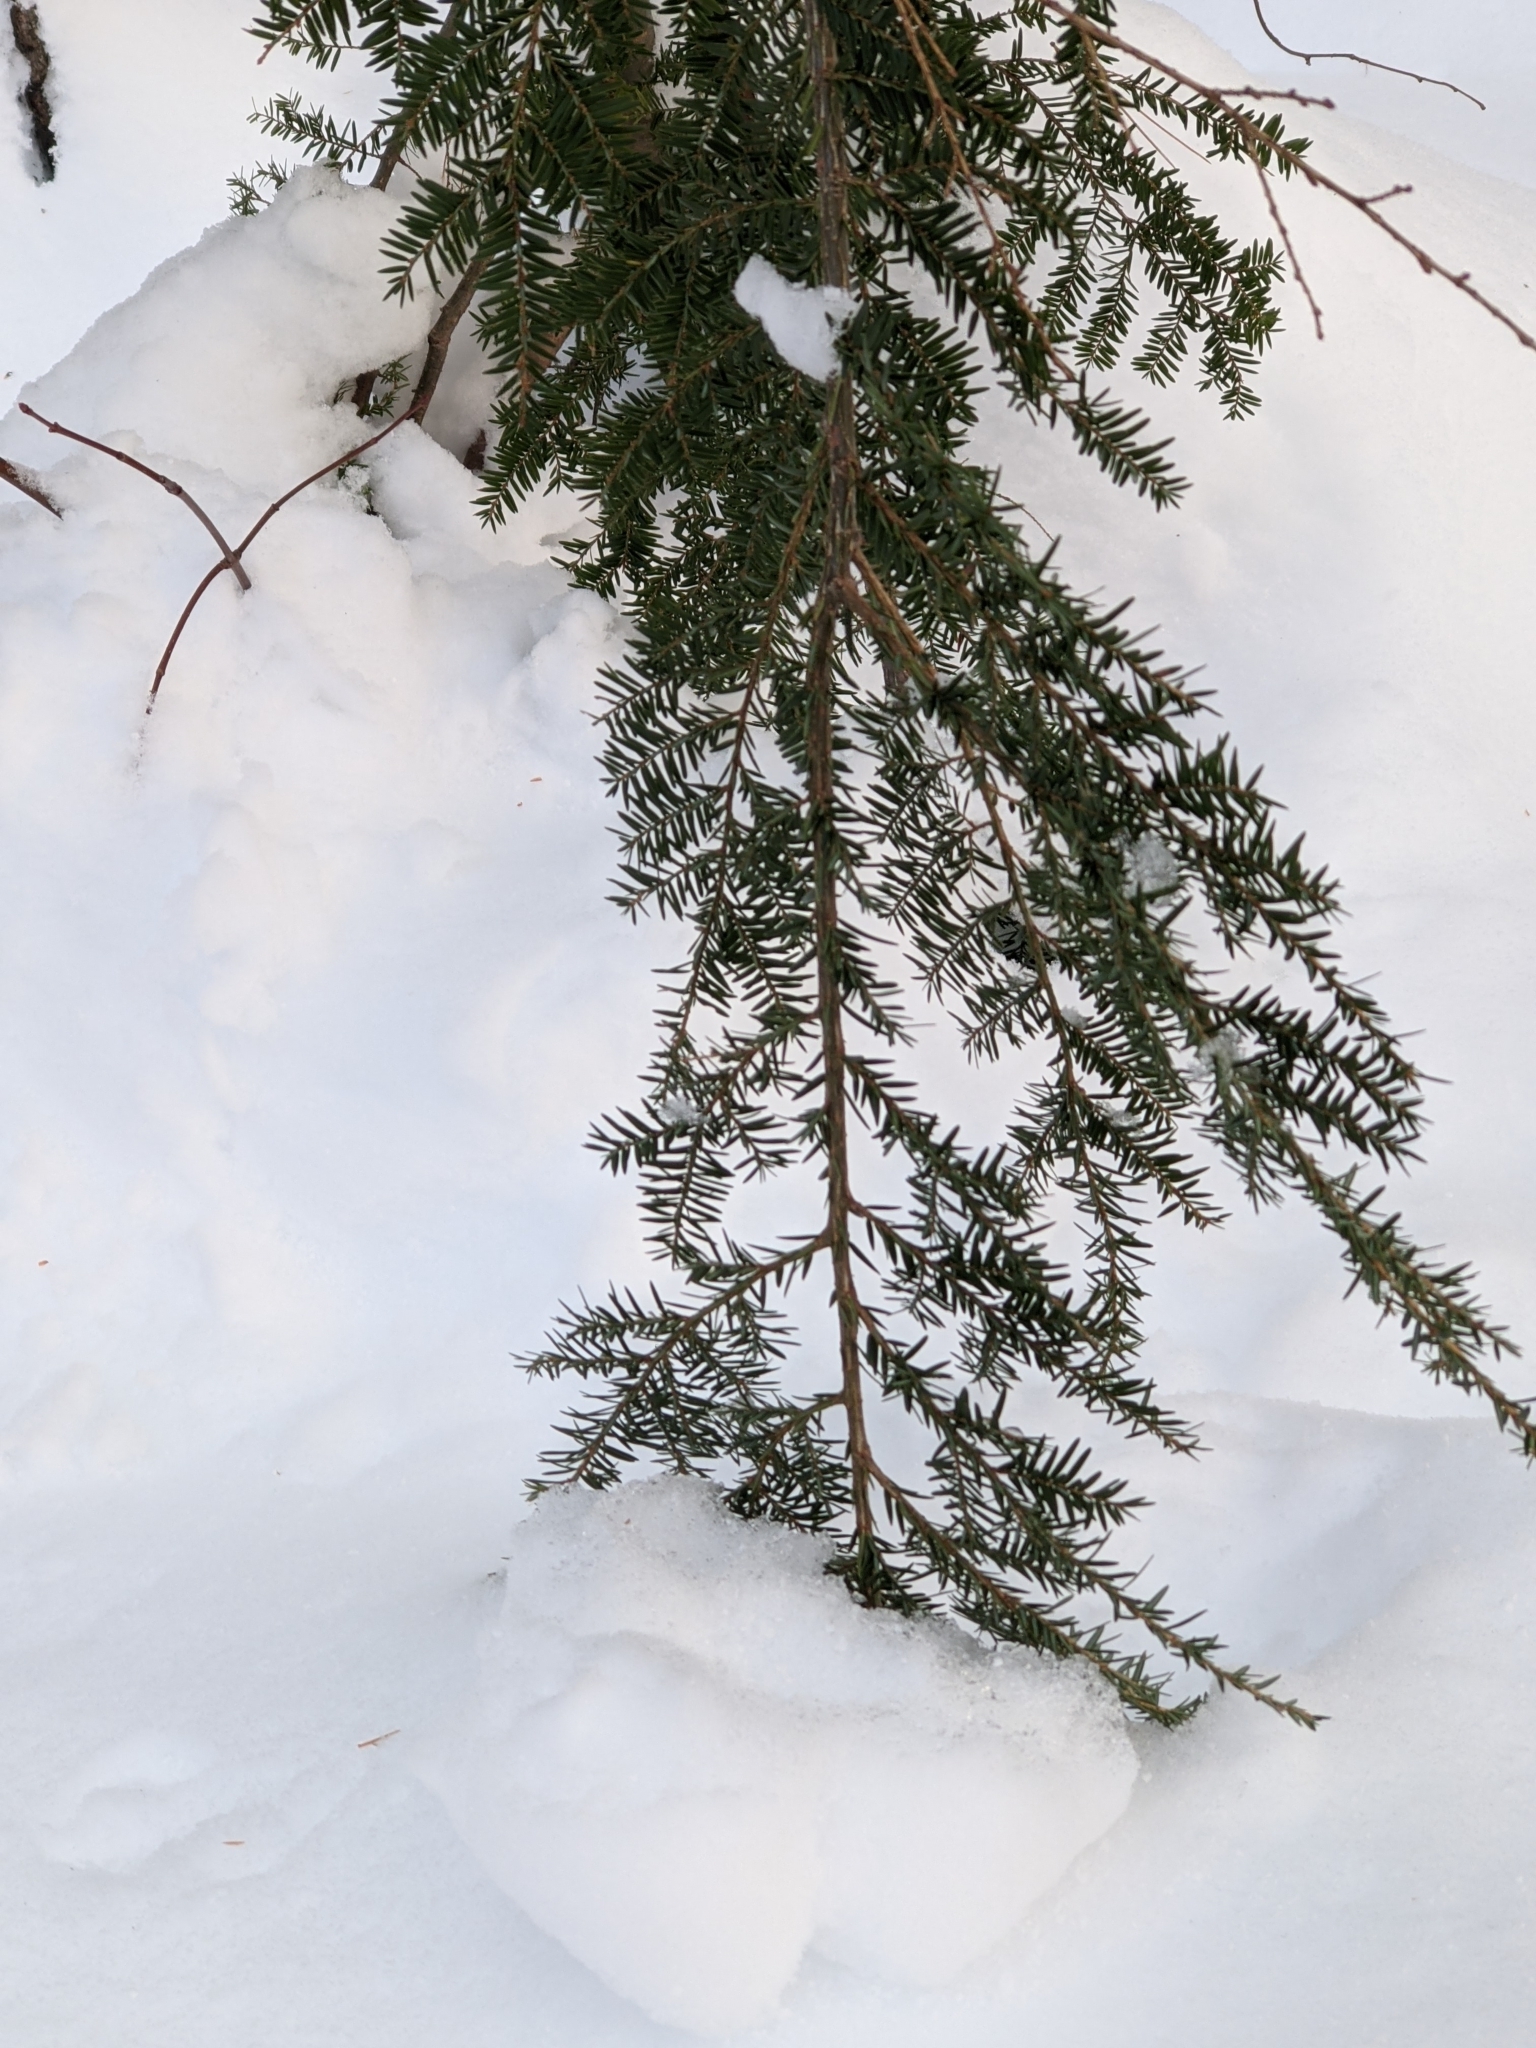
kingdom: Plantae
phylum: Tracheophyta
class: Pinopsida
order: Pinales
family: Pinaceae
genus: Tsuga
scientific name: Tsuga canadensis
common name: Eastern hemlock
